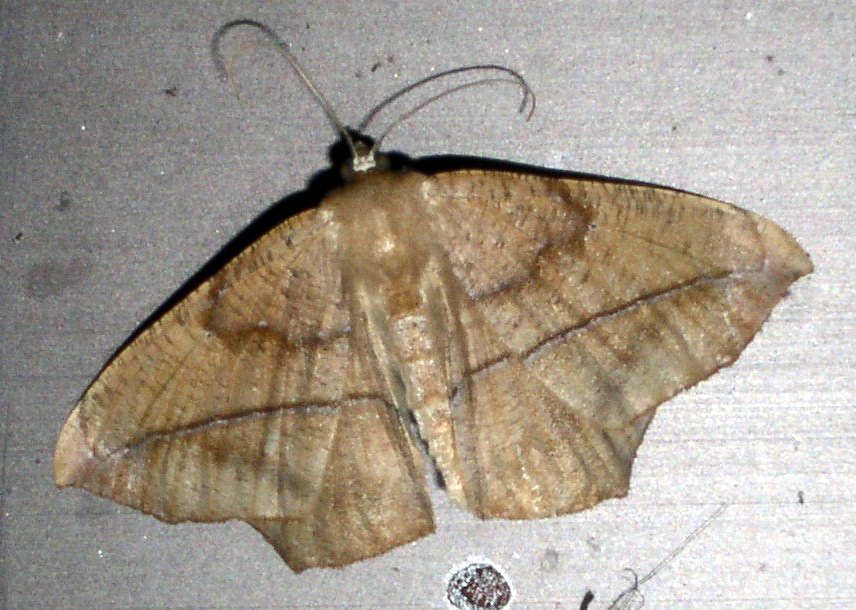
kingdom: Animalia
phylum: Arthropoda
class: Insecta
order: Lepidoptera
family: Geometridae
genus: Prochoerodes
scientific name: Prochoerodes lineola
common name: Large maple spanworm
